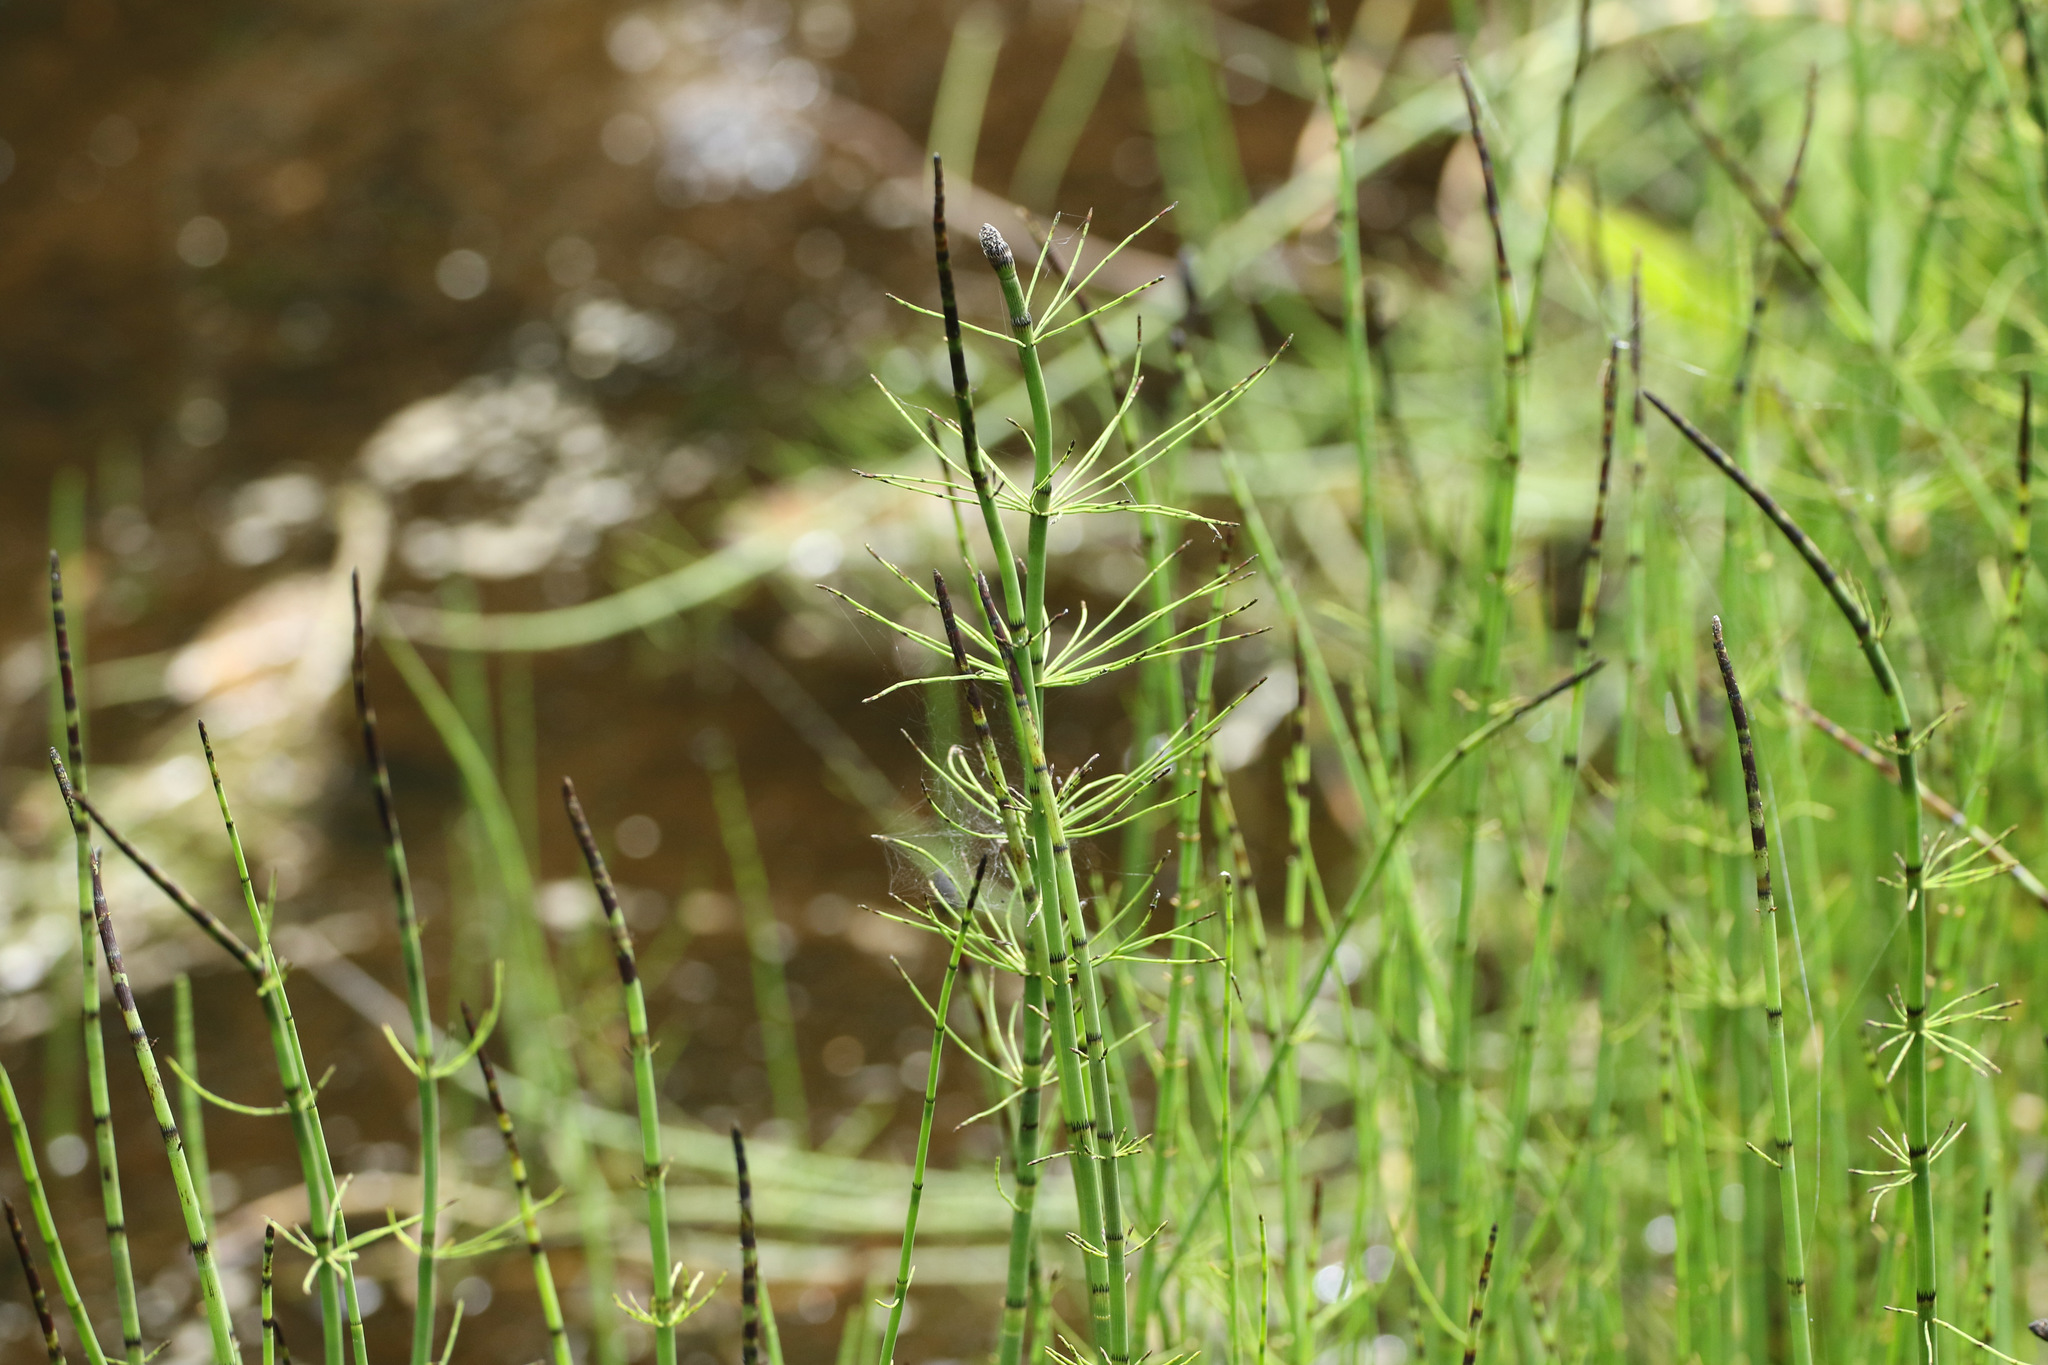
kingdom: Plantae
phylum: Tracheophyta
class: Polypodiopsida
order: Equisetales
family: Equisetaceae
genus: Equisetum
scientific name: Equisetum fluviatile
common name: Water horsetail
